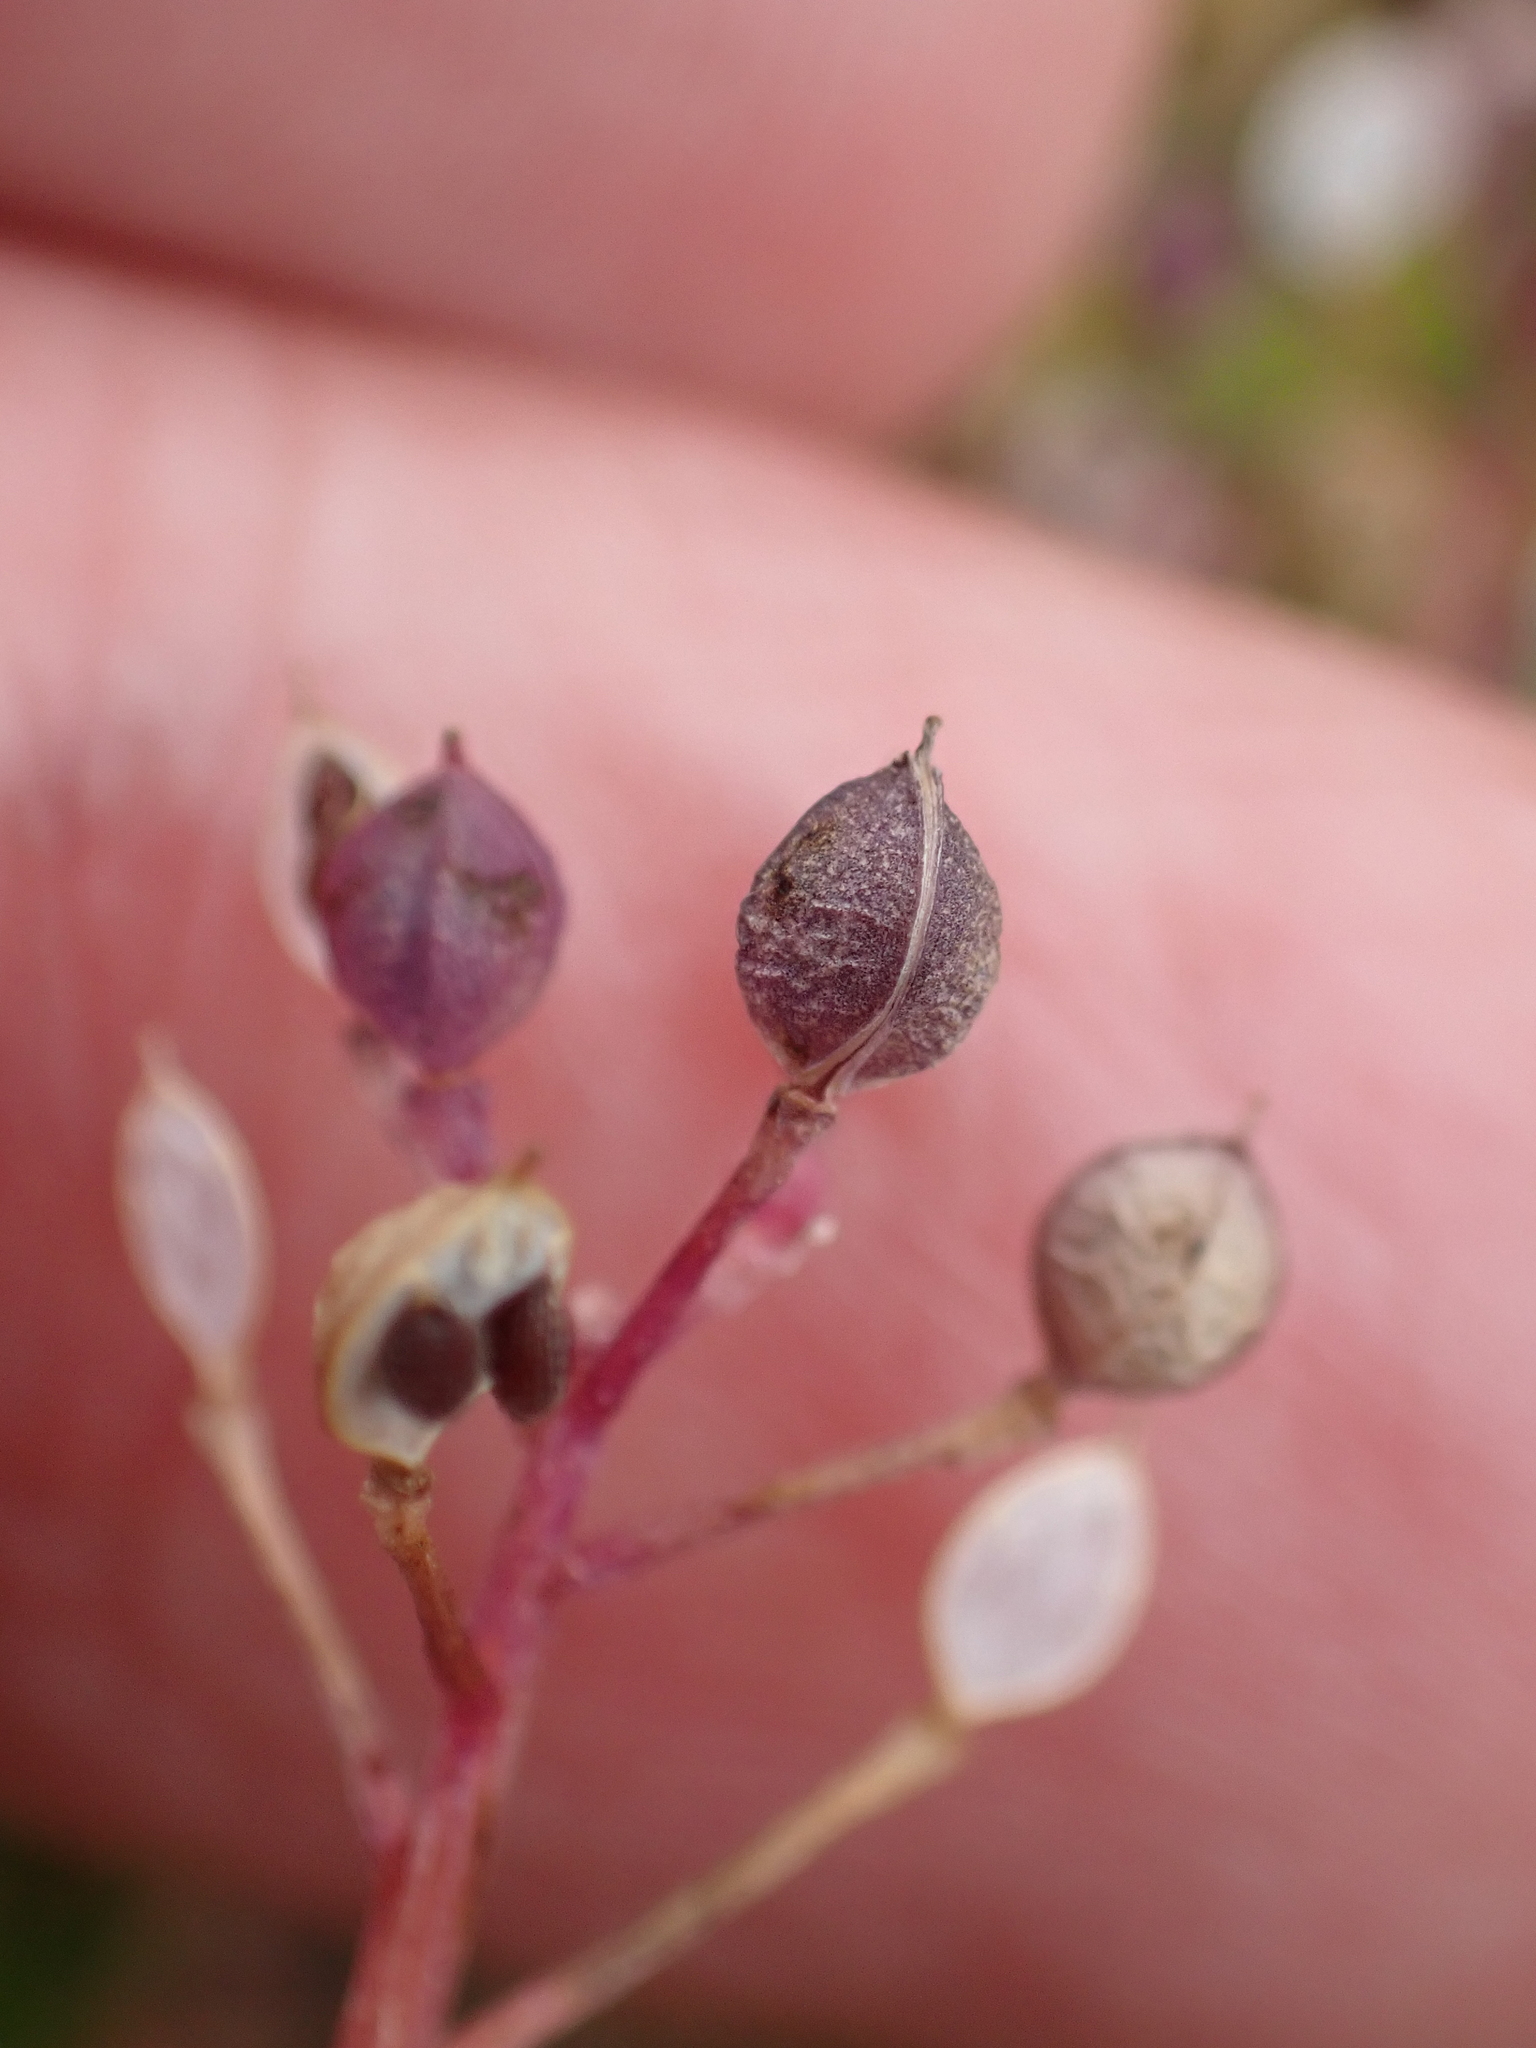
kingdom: Plantae
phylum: Tracheophyta
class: Magnoliopsida
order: Brassicales
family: Brassicaceae
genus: Cochlearia
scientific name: Cochlearia danica
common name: Early scurvygrass
